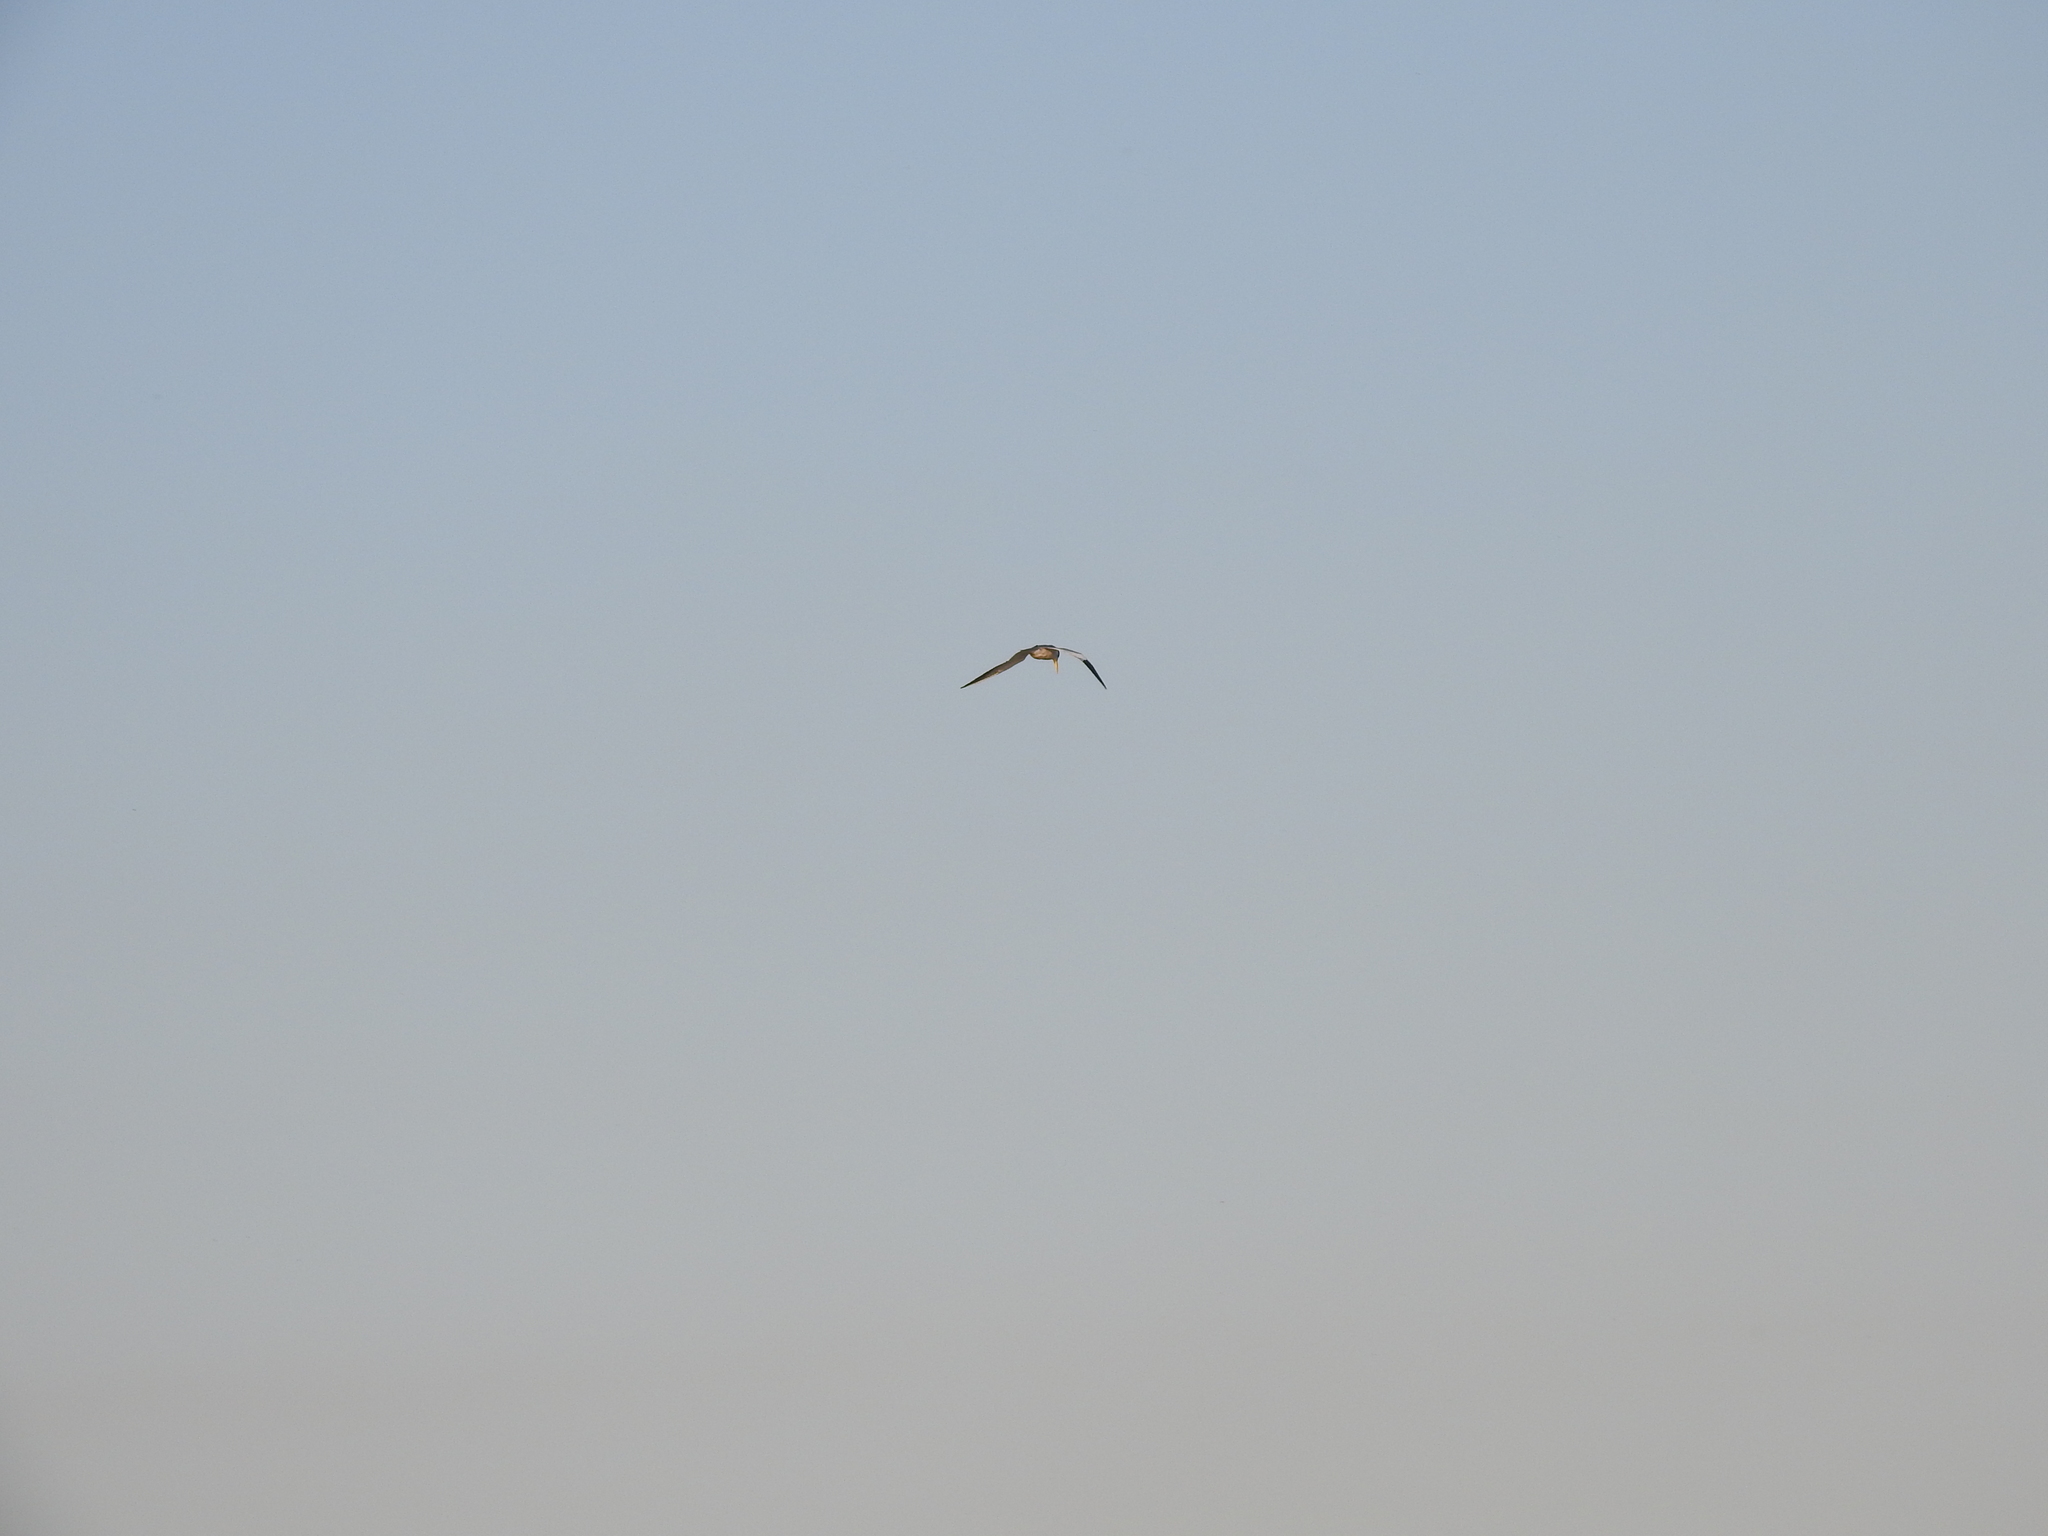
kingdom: Animalia
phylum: Chordata
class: Aves
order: Charadriiformes
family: Laridae
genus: Phaetusa
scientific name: Phaetusa simplex
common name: Large-billed tern
